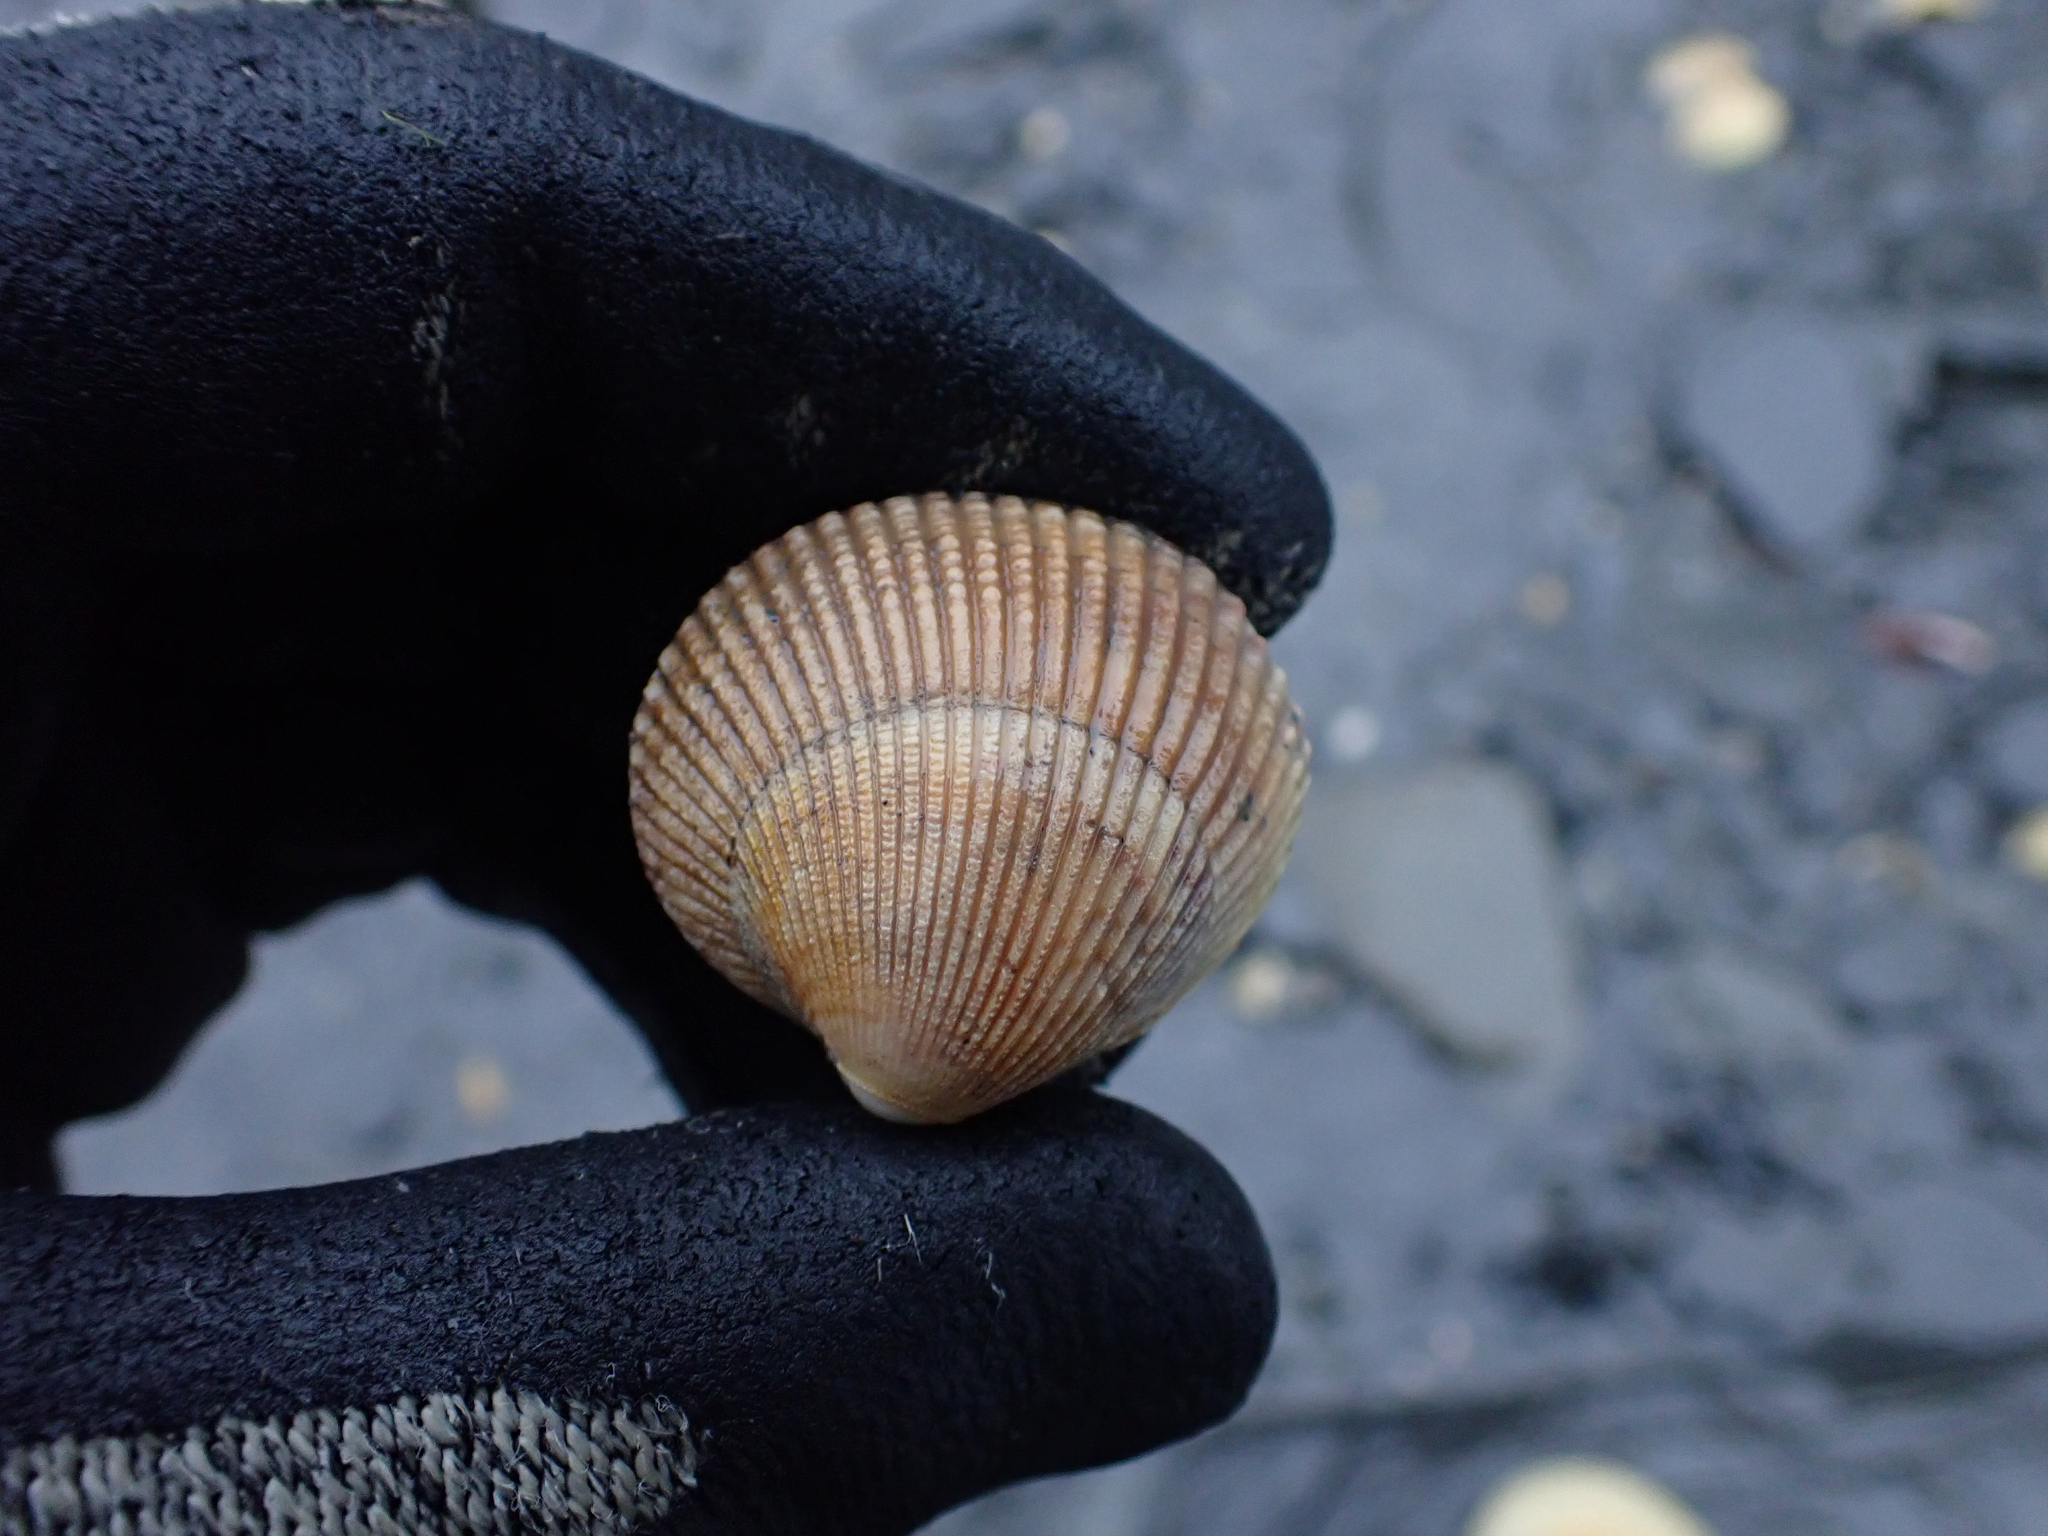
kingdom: Animalia
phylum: Mollusca
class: Bivalvia
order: Cardiida
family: Cardiidae
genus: Clinocardium
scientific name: Clinocardium nuttallii
